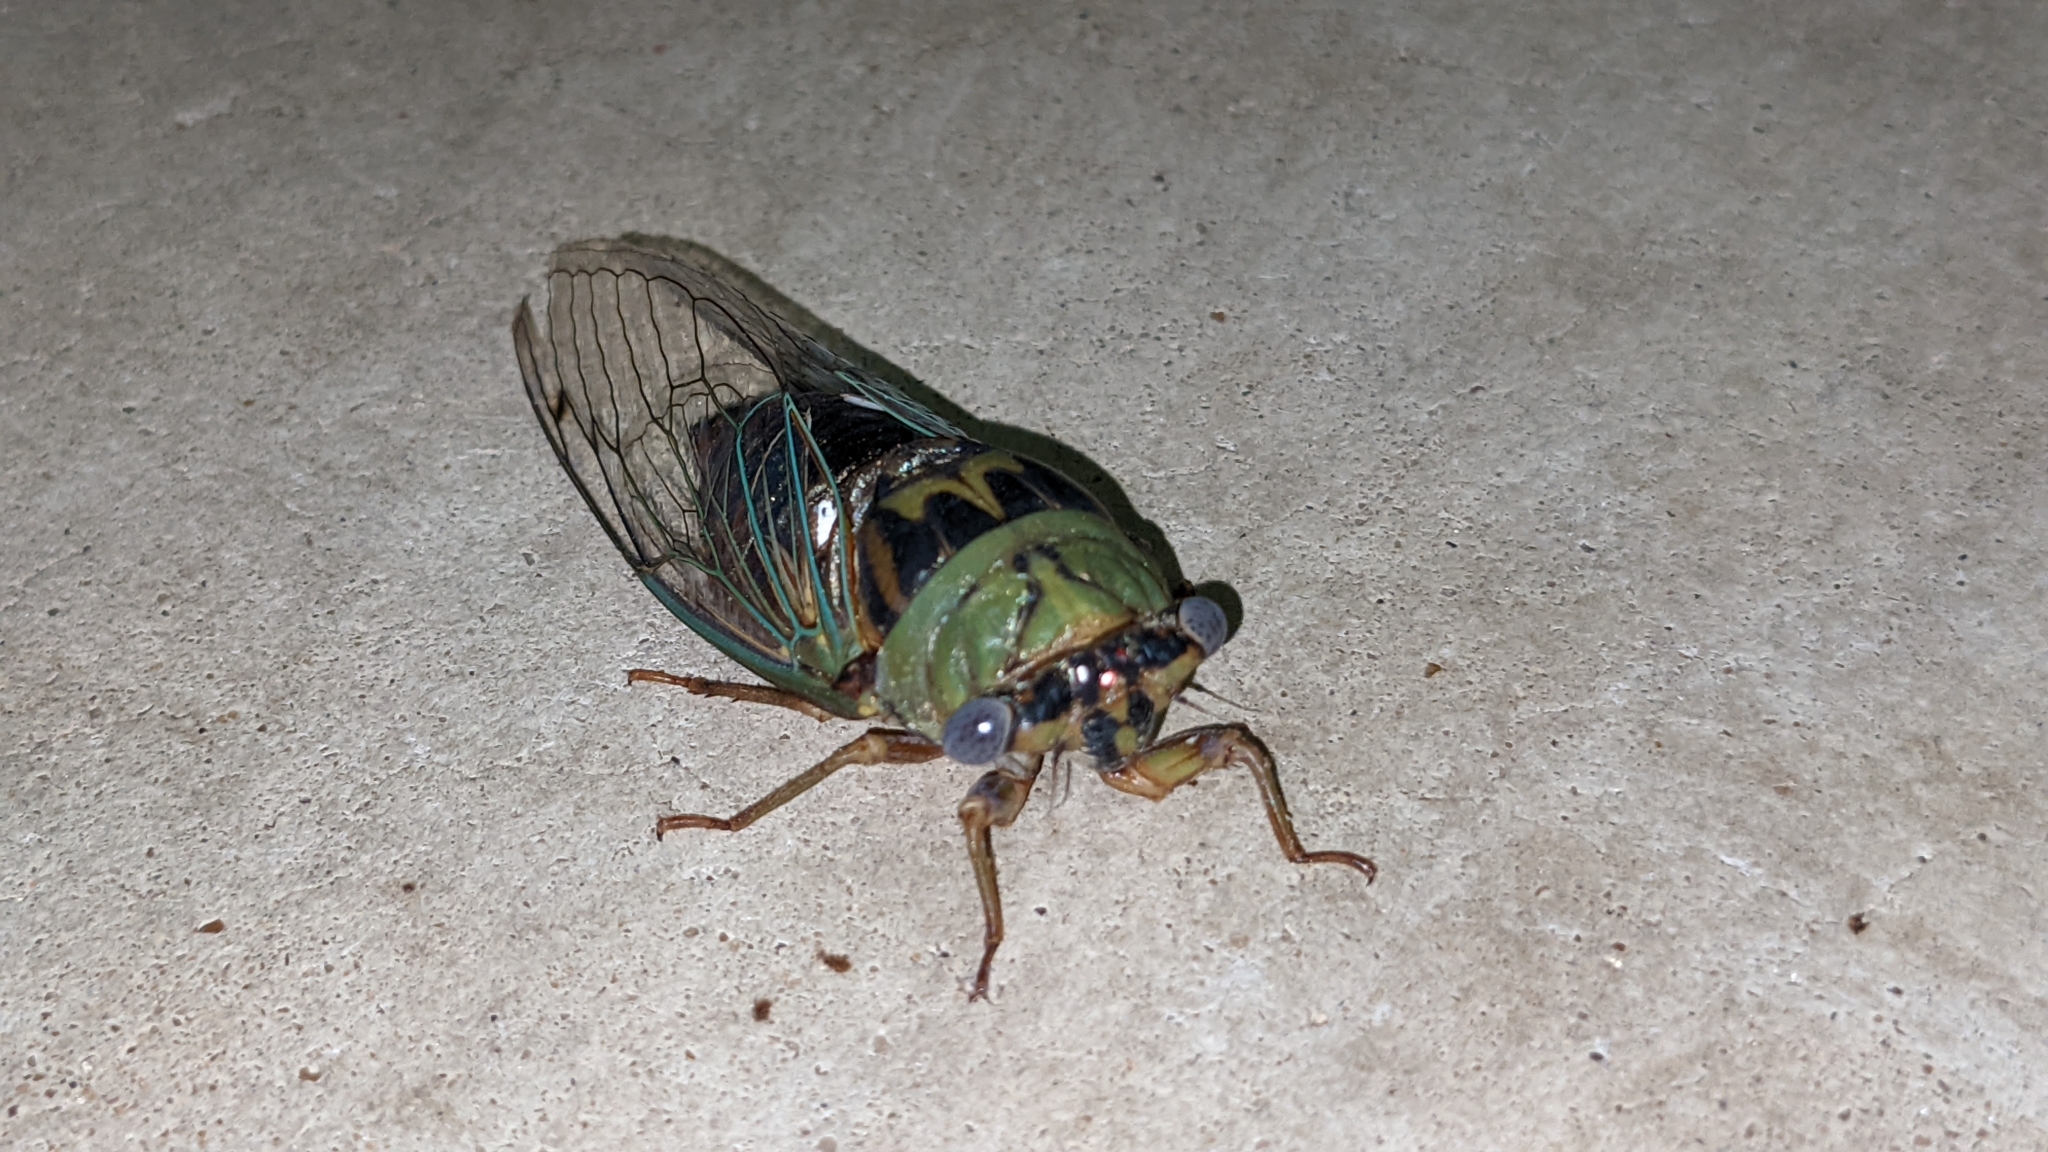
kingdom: Animalia
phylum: Arthropoda
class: Insecta
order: Hemiptera
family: Cicadidae
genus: Megatibicen
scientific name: Megatibicen resh
